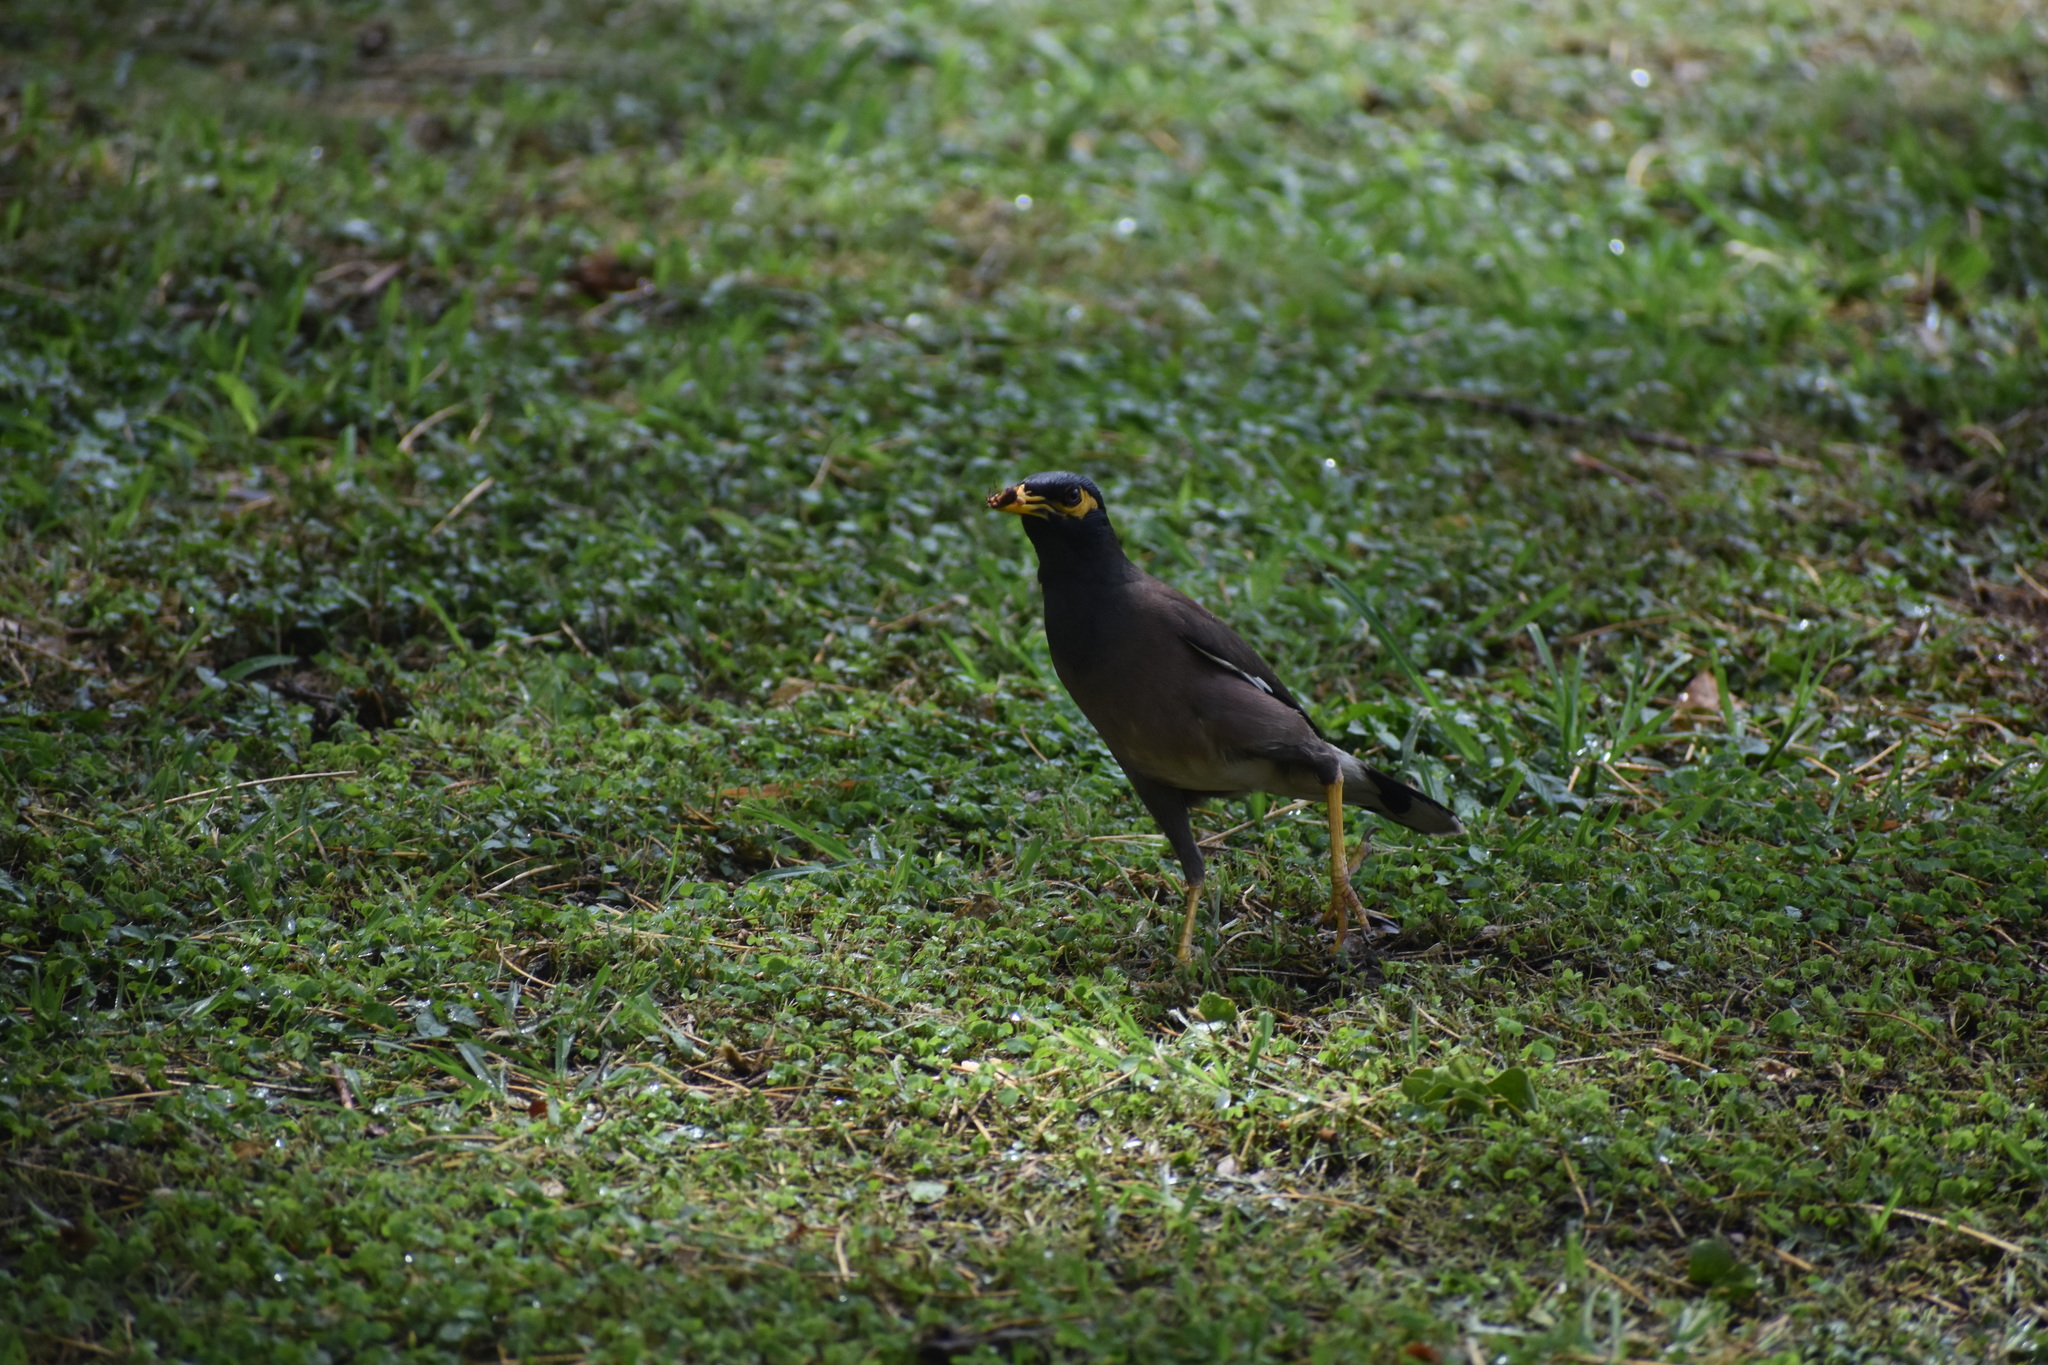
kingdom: Animalia
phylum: Chordata
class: Aves
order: Passeriformes
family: Sturnidae
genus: Acridotheres
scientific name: Acridotheres tristis
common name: Common myna
